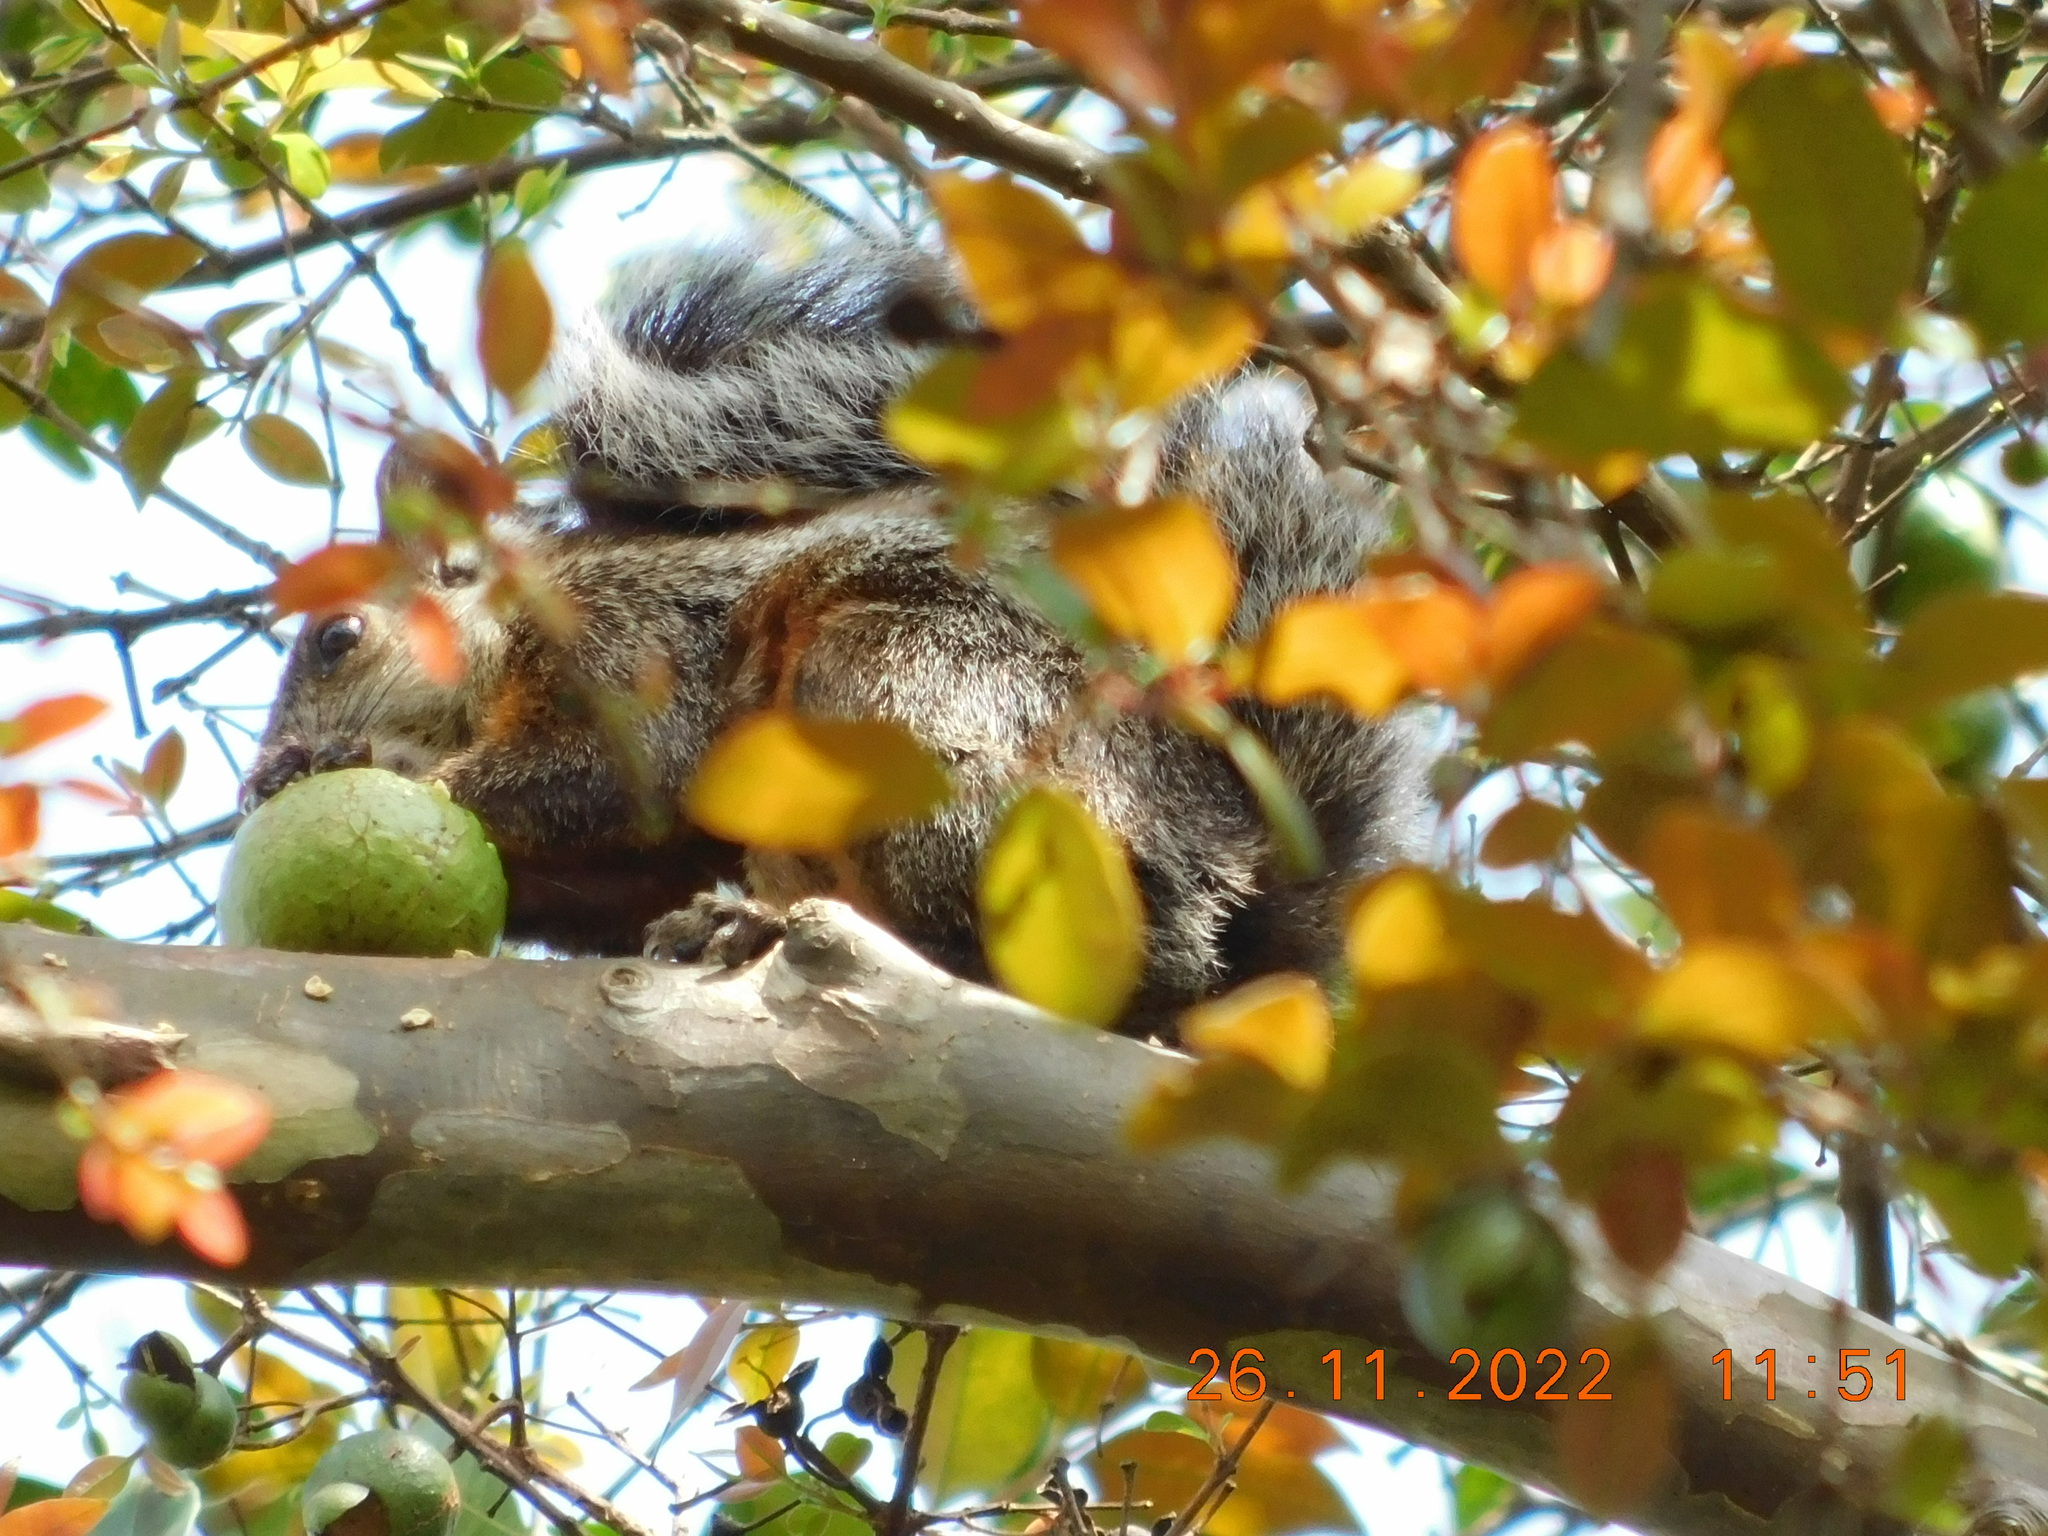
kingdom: Animalia
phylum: Chordata
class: Mammalia
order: Rodentia
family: Sciuridae
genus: Sciurus
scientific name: Sciurus variegatoides
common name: Variegated squirrel
